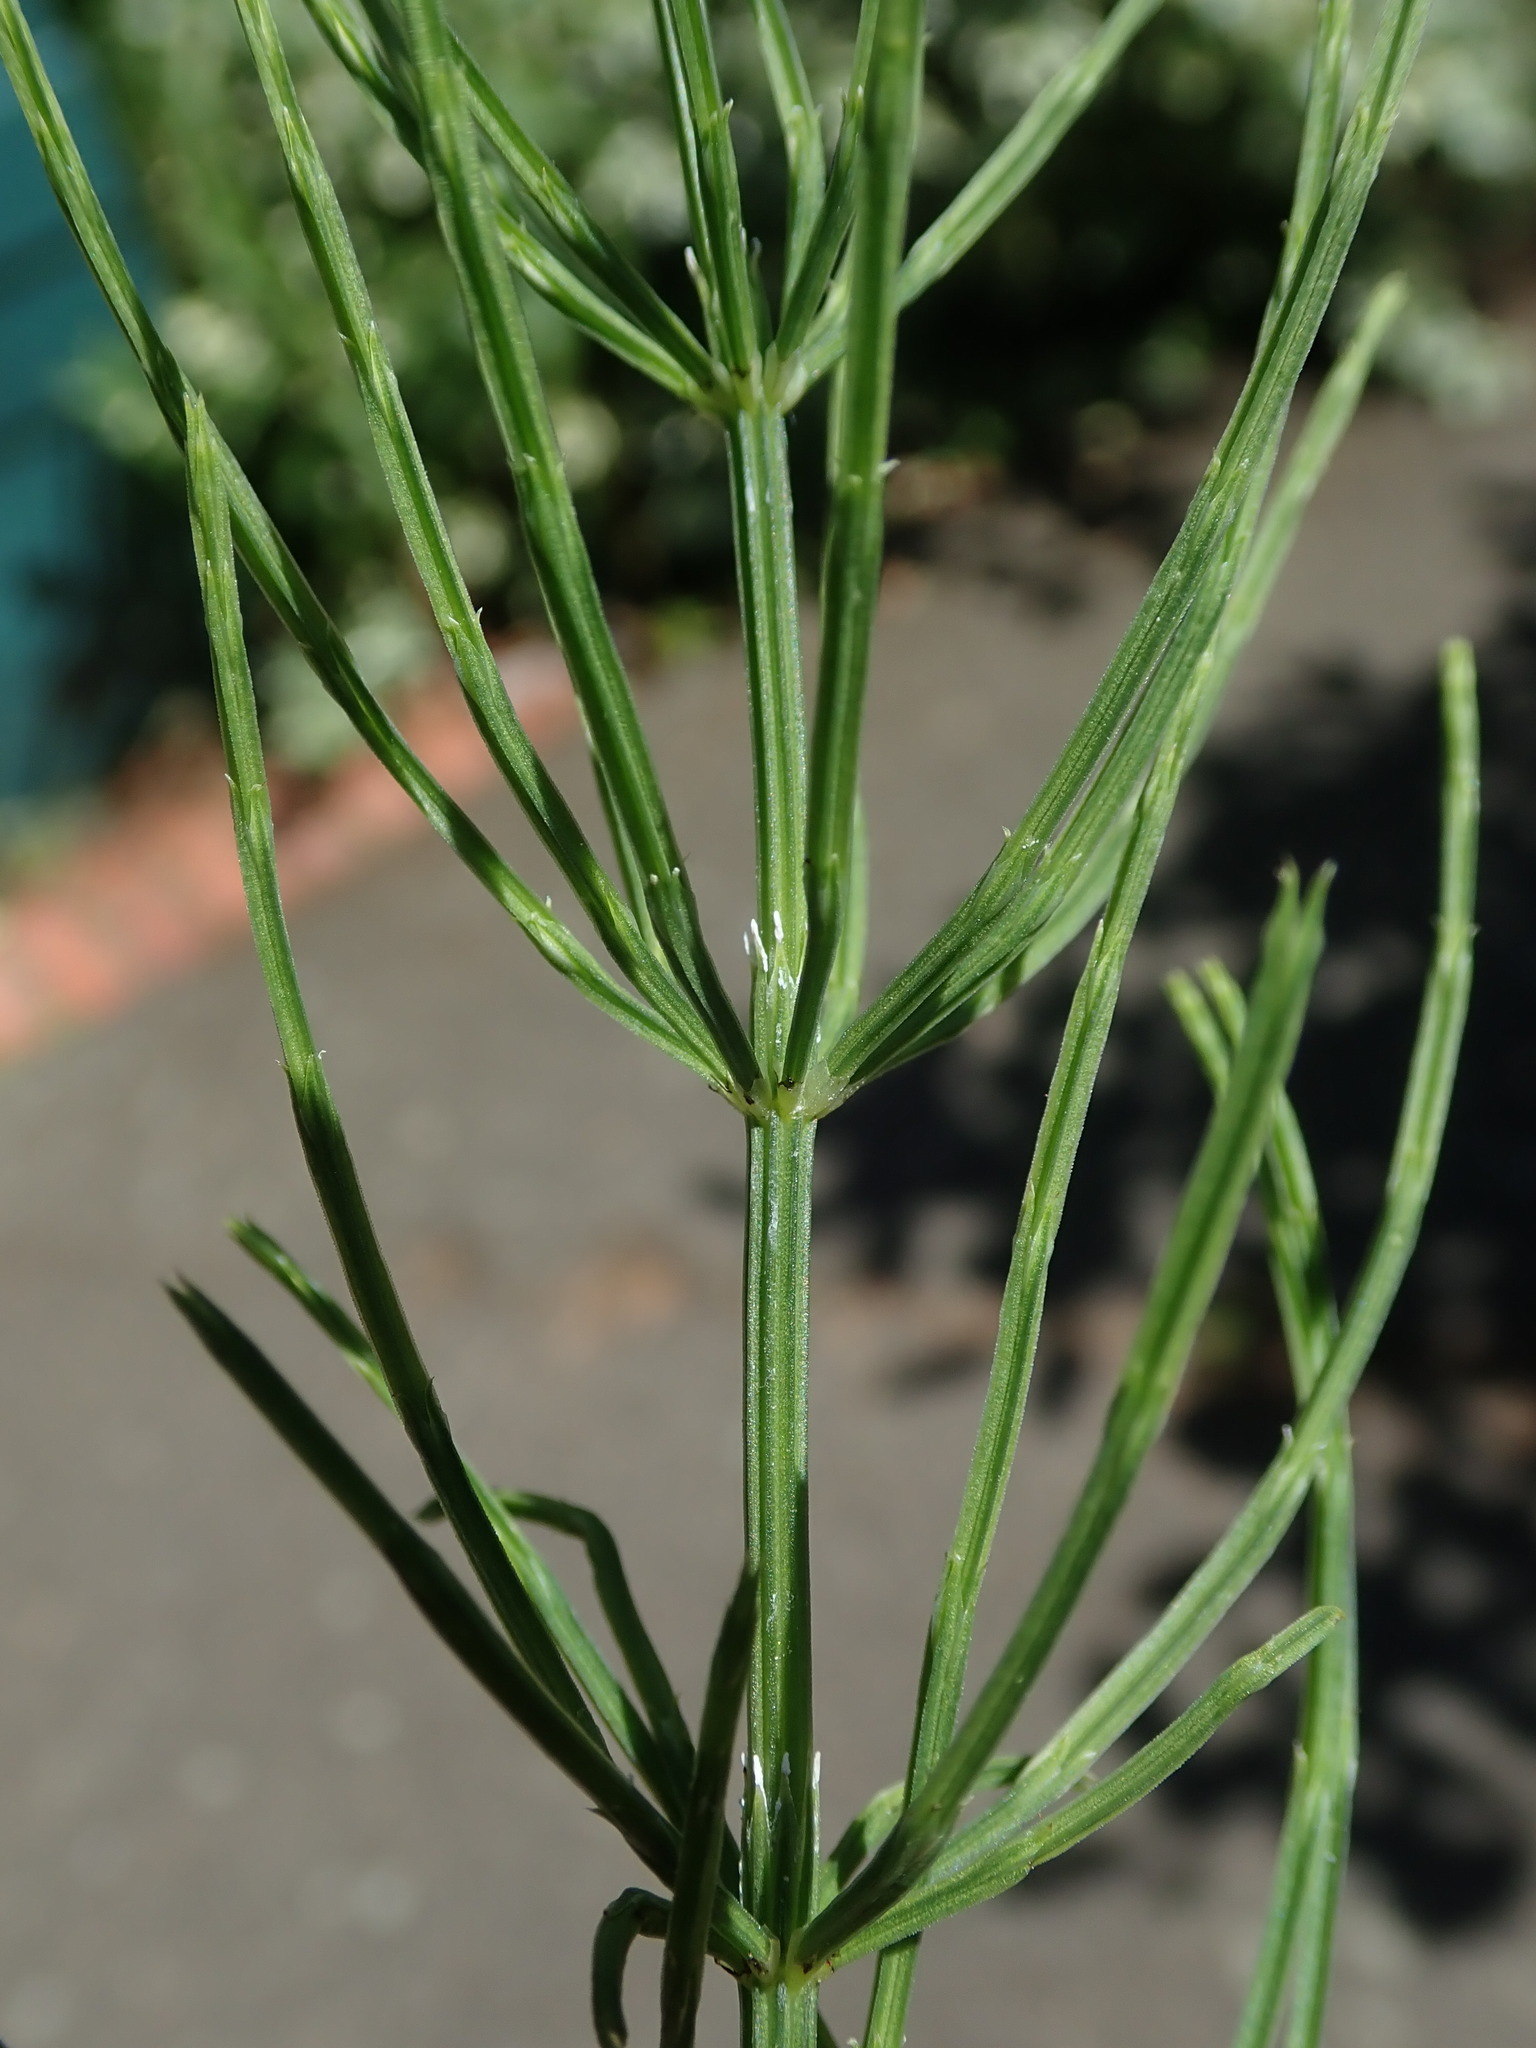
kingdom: Plantae
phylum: Tracheophyta
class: Polypodiopsida
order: Equisetales
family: Equisetaceae
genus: Equisetum
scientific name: Equisetum arvense
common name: Field horsetail
